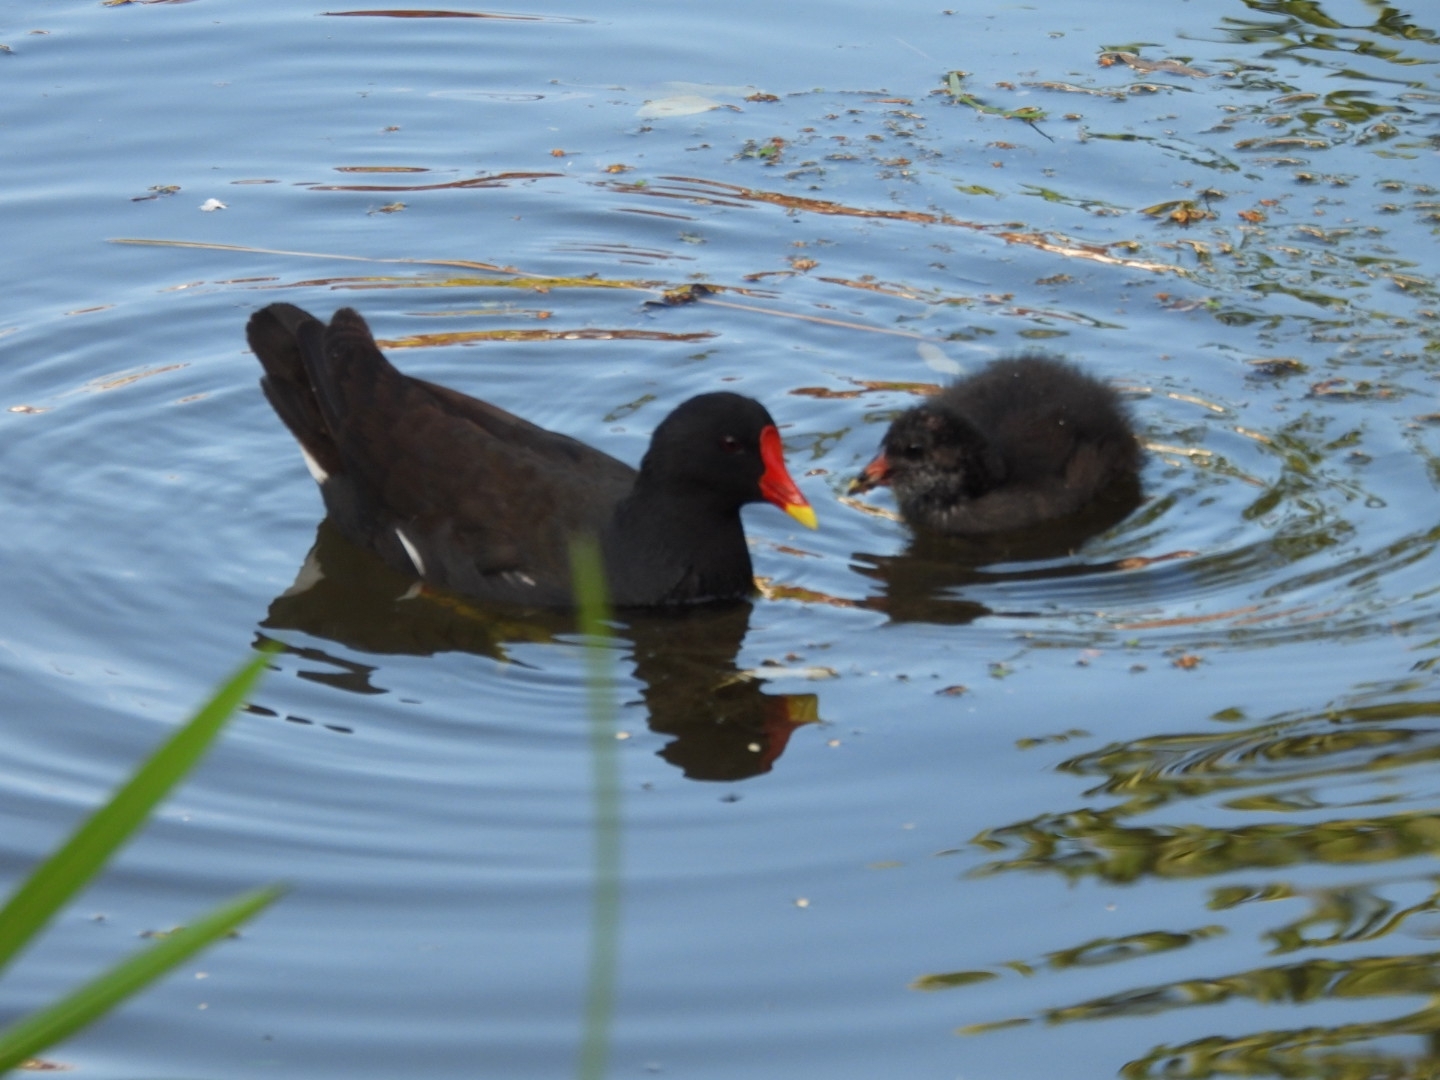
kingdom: Animalia
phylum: Chordata
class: Aves
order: Gruiformes
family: Rallidae
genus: Gallinula
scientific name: Gallinula chloropus
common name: Common moorhen
